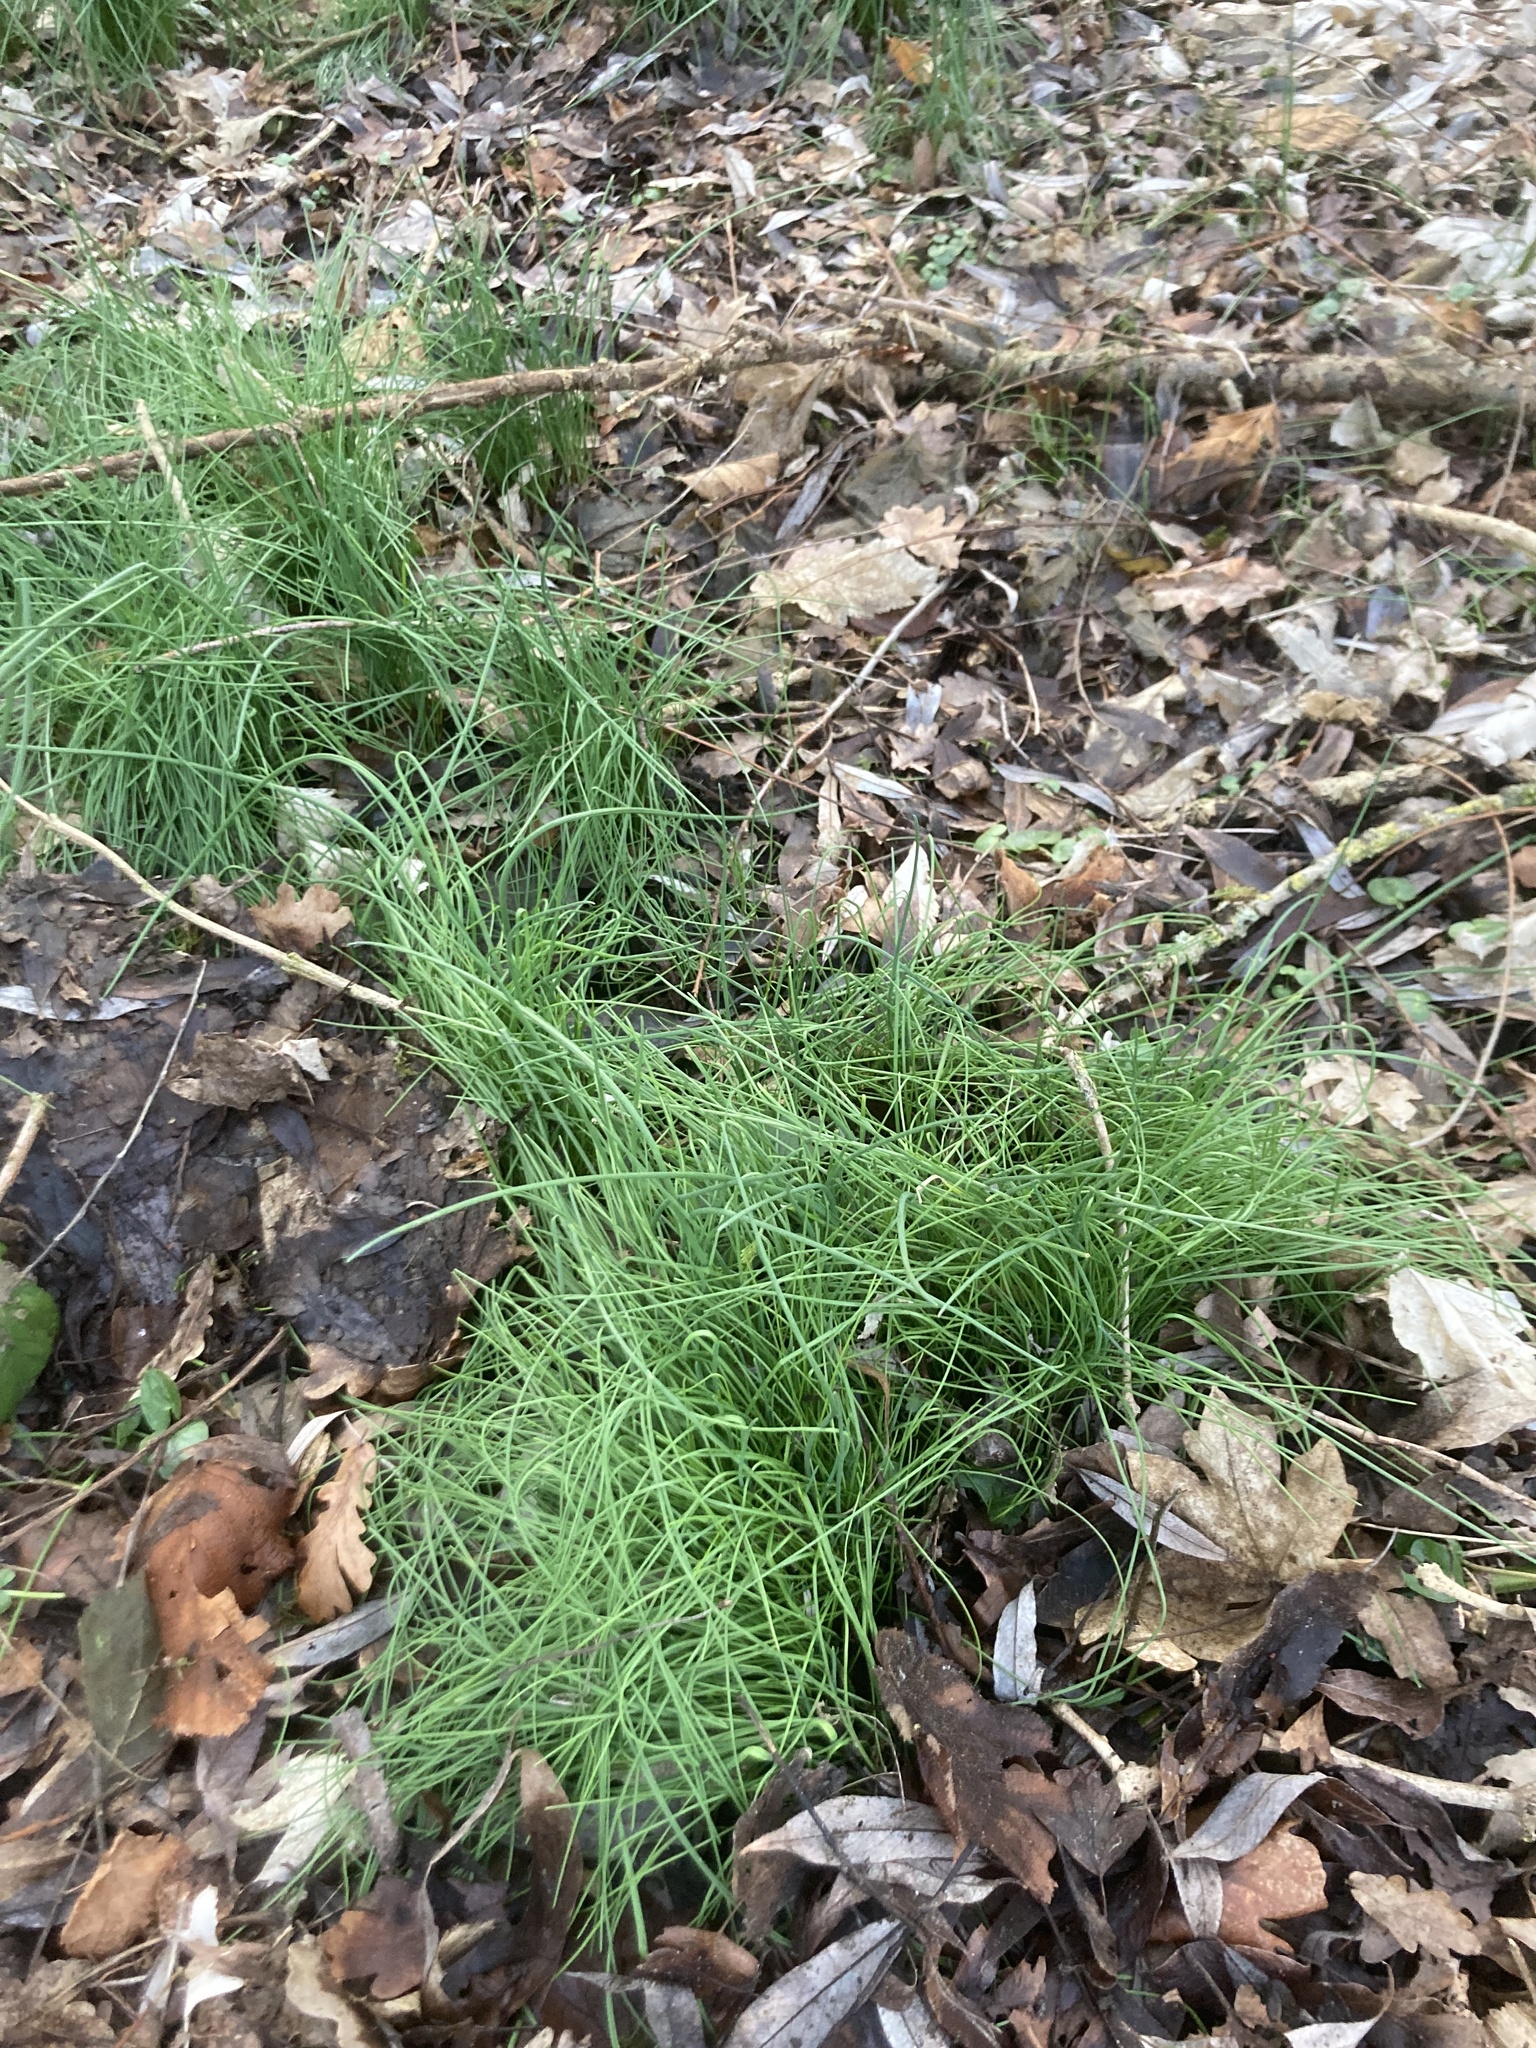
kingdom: Plantae
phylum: Tracheophyta
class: Liliopsida
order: Asparagales
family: Amaryllidaceae
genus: Allium
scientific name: Allium vineale
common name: Crow garlic
